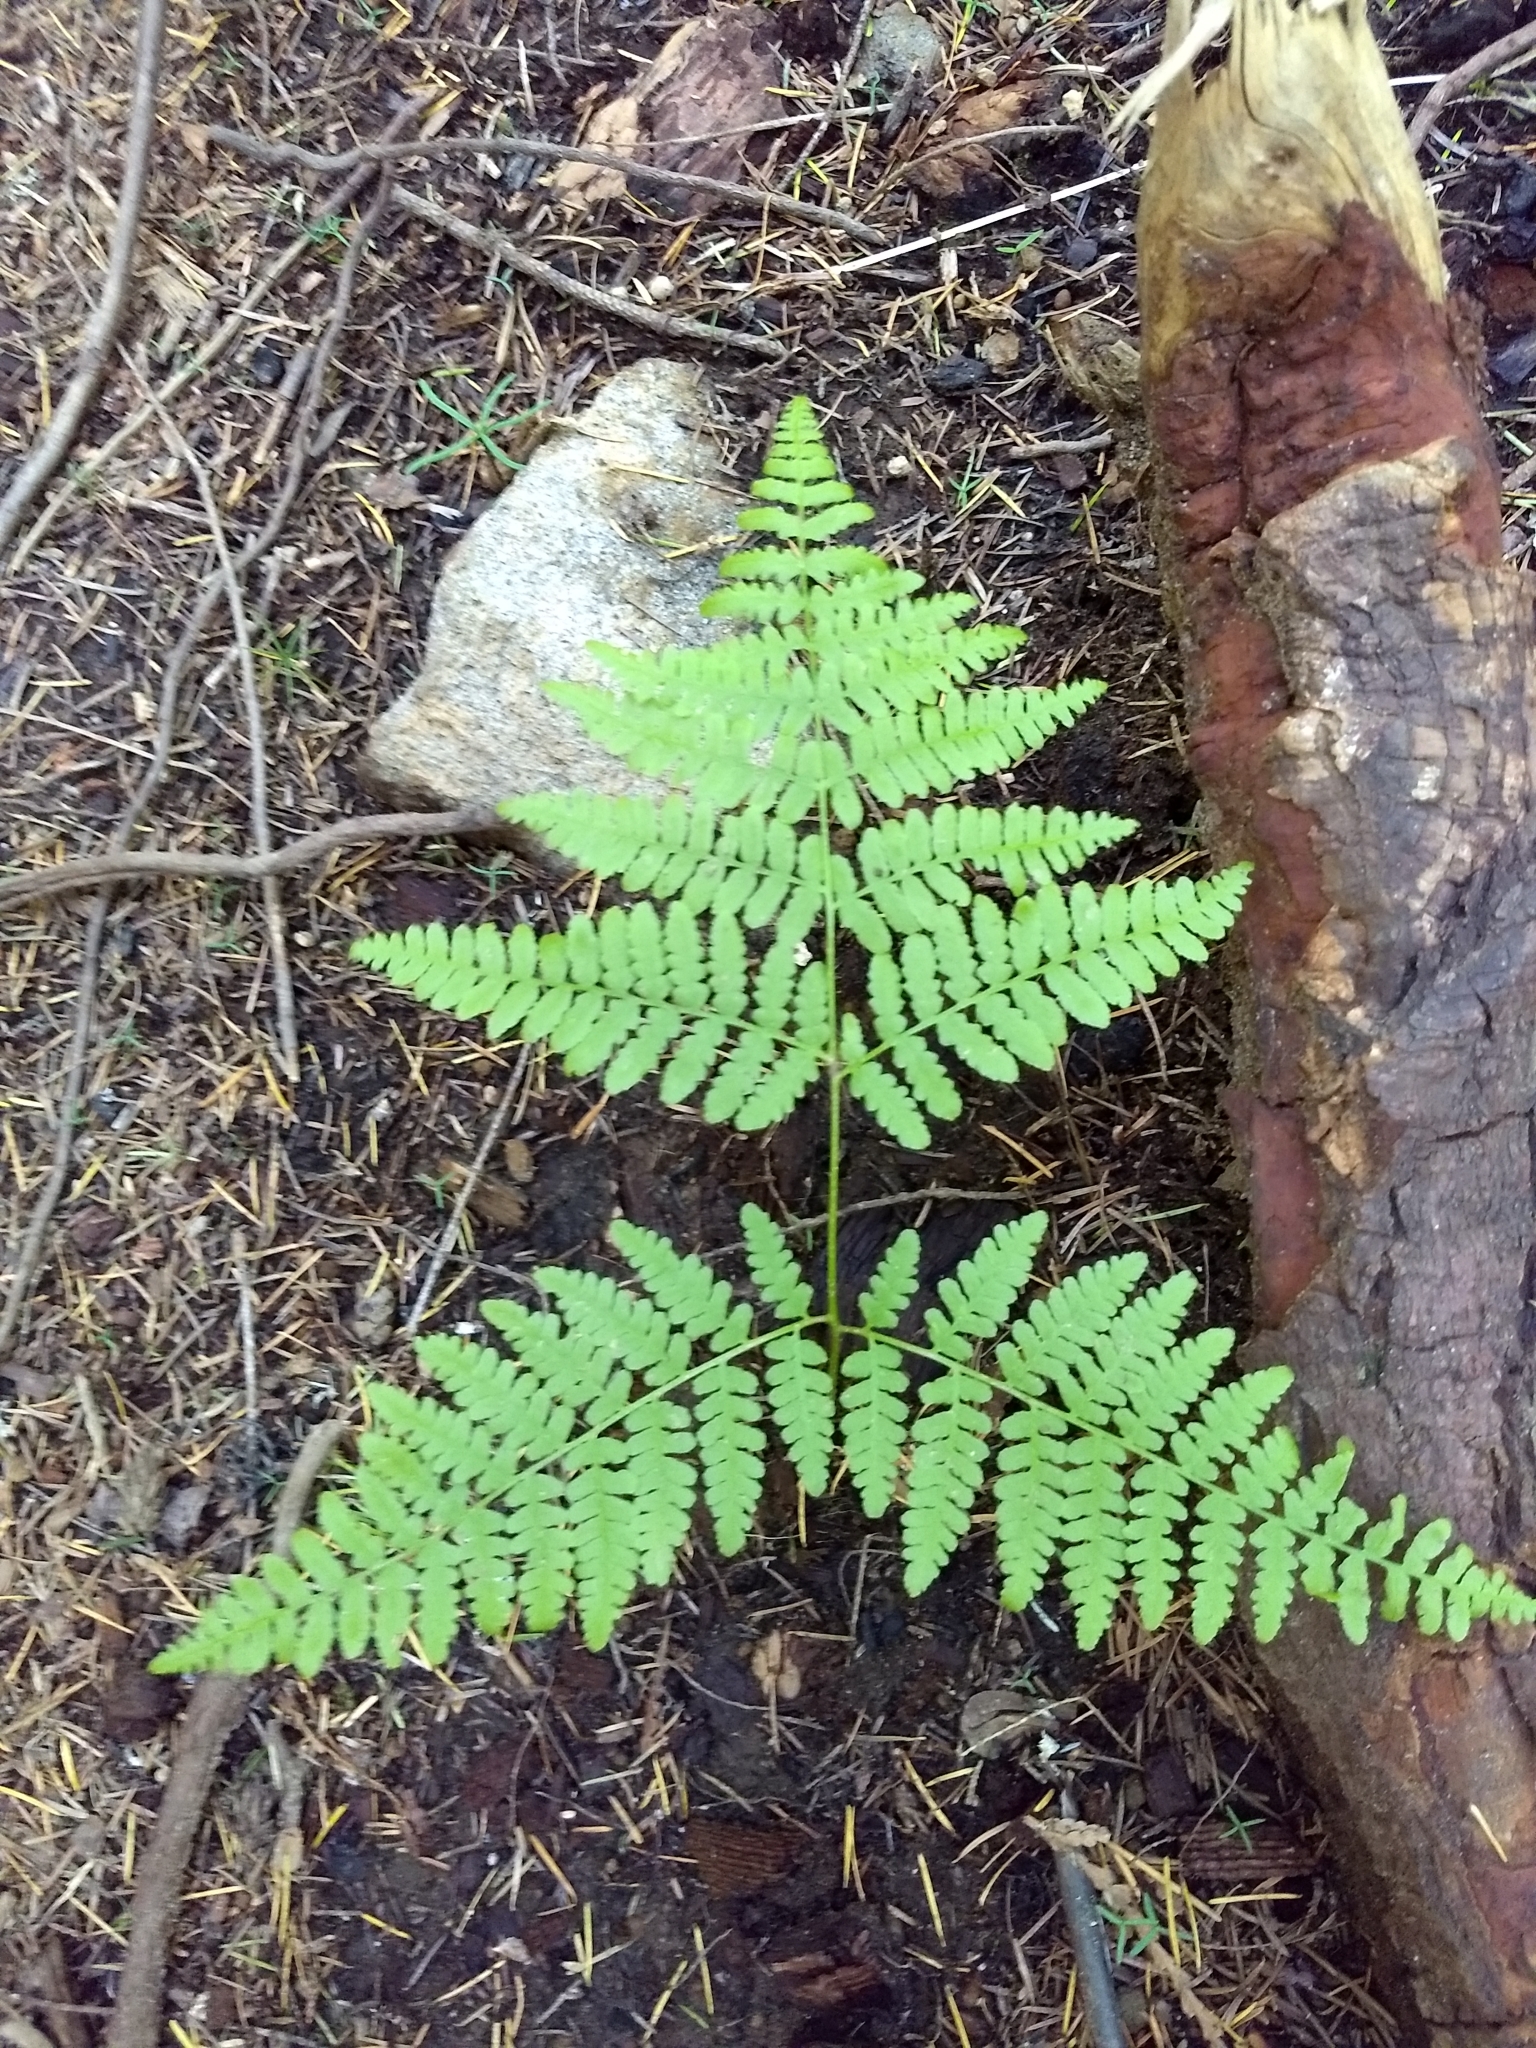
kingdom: Plantae
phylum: Tracheophyta
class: Polypodiopsida
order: Polypodiales
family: Dennstaedtiaceae
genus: Pteridium
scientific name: Pteridium aquilinum
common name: Bracken
